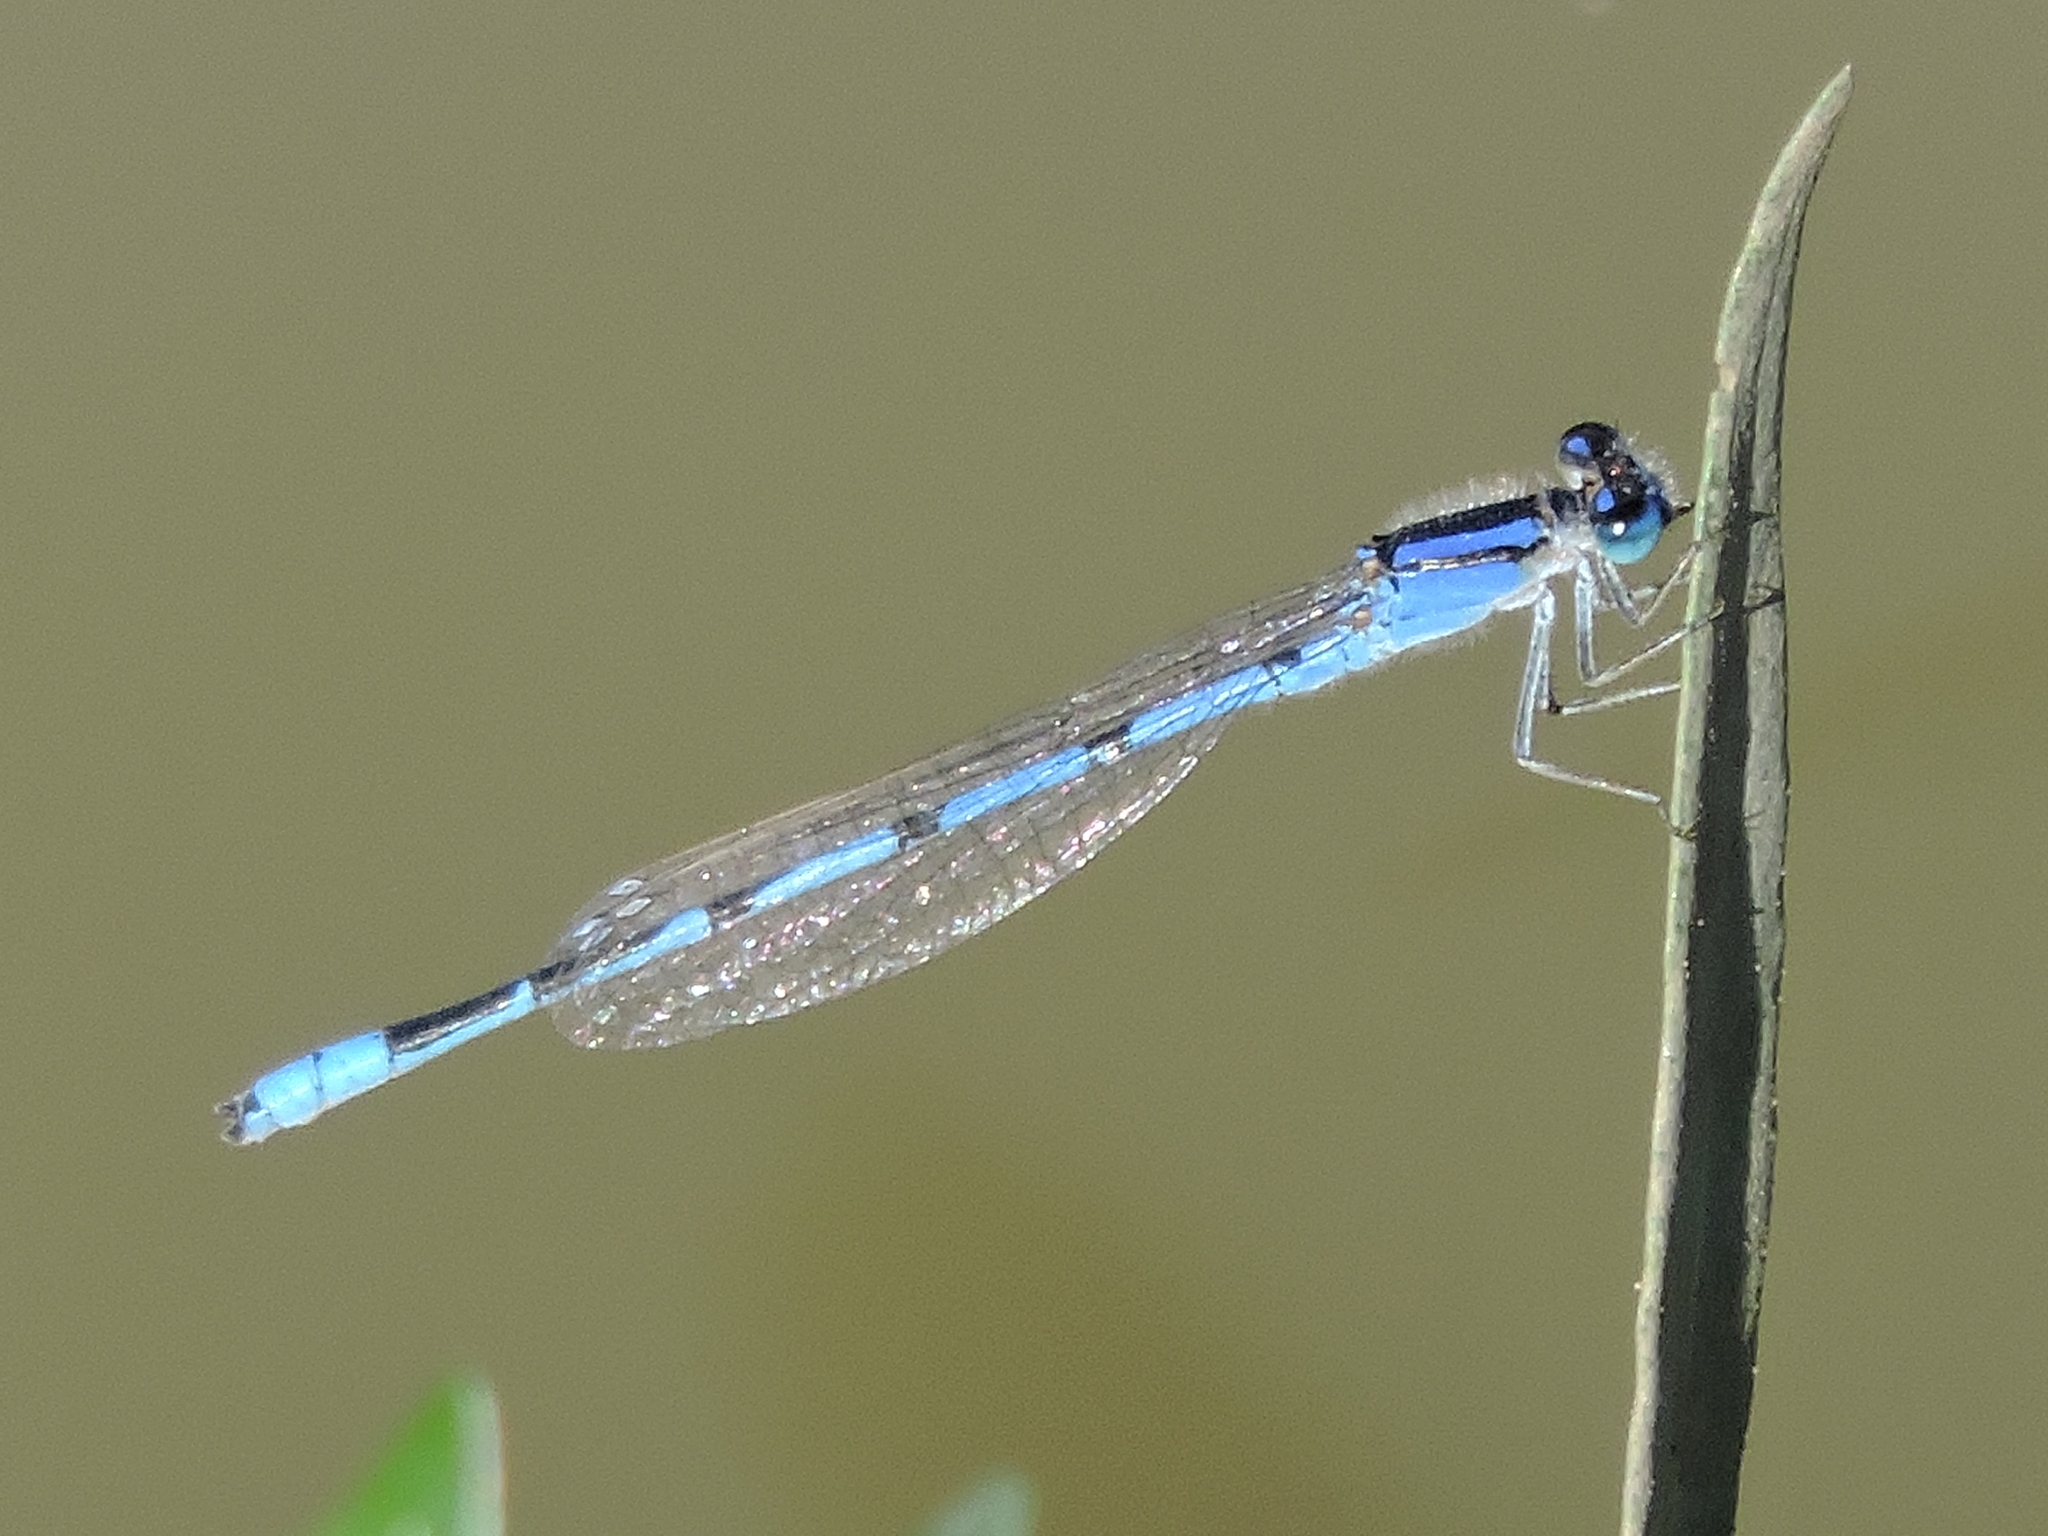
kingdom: Animalia
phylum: Arthropoda
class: Insecta
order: Odonata
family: Coenagrionidae
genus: Enallagma
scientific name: Enallagma civile
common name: Damselfly
